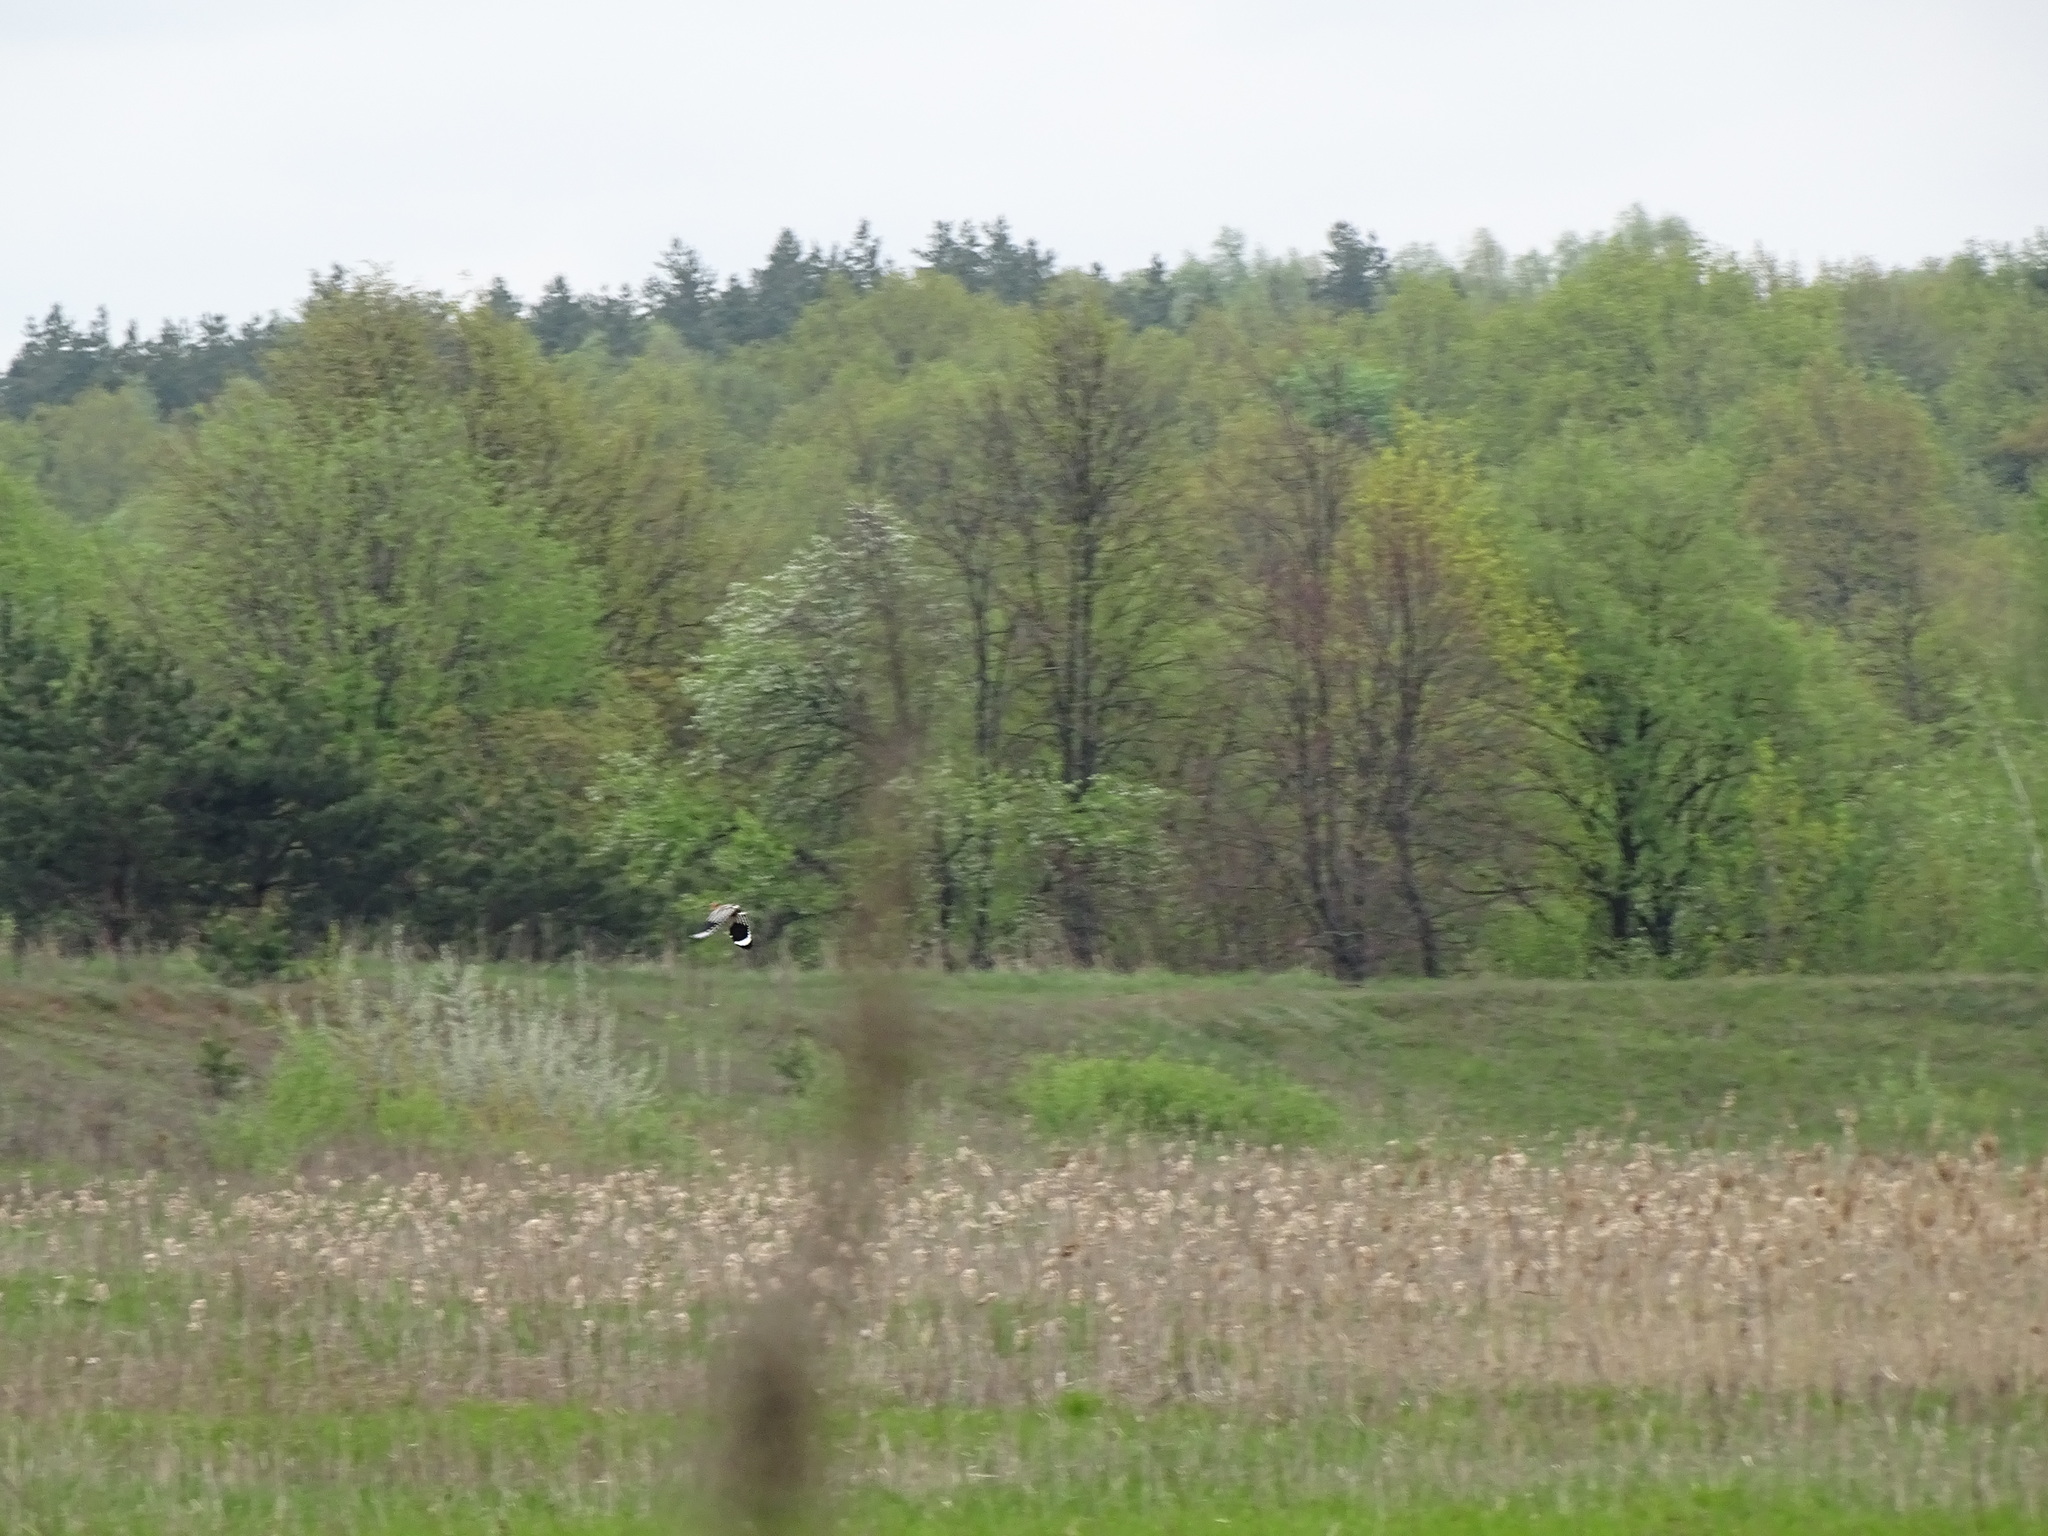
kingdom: Animalia
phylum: Chordata
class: Aves
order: Bucerotiformes
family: Upupidae
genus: Upupa
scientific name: Upupa epops
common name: Eurasian hoopoe
